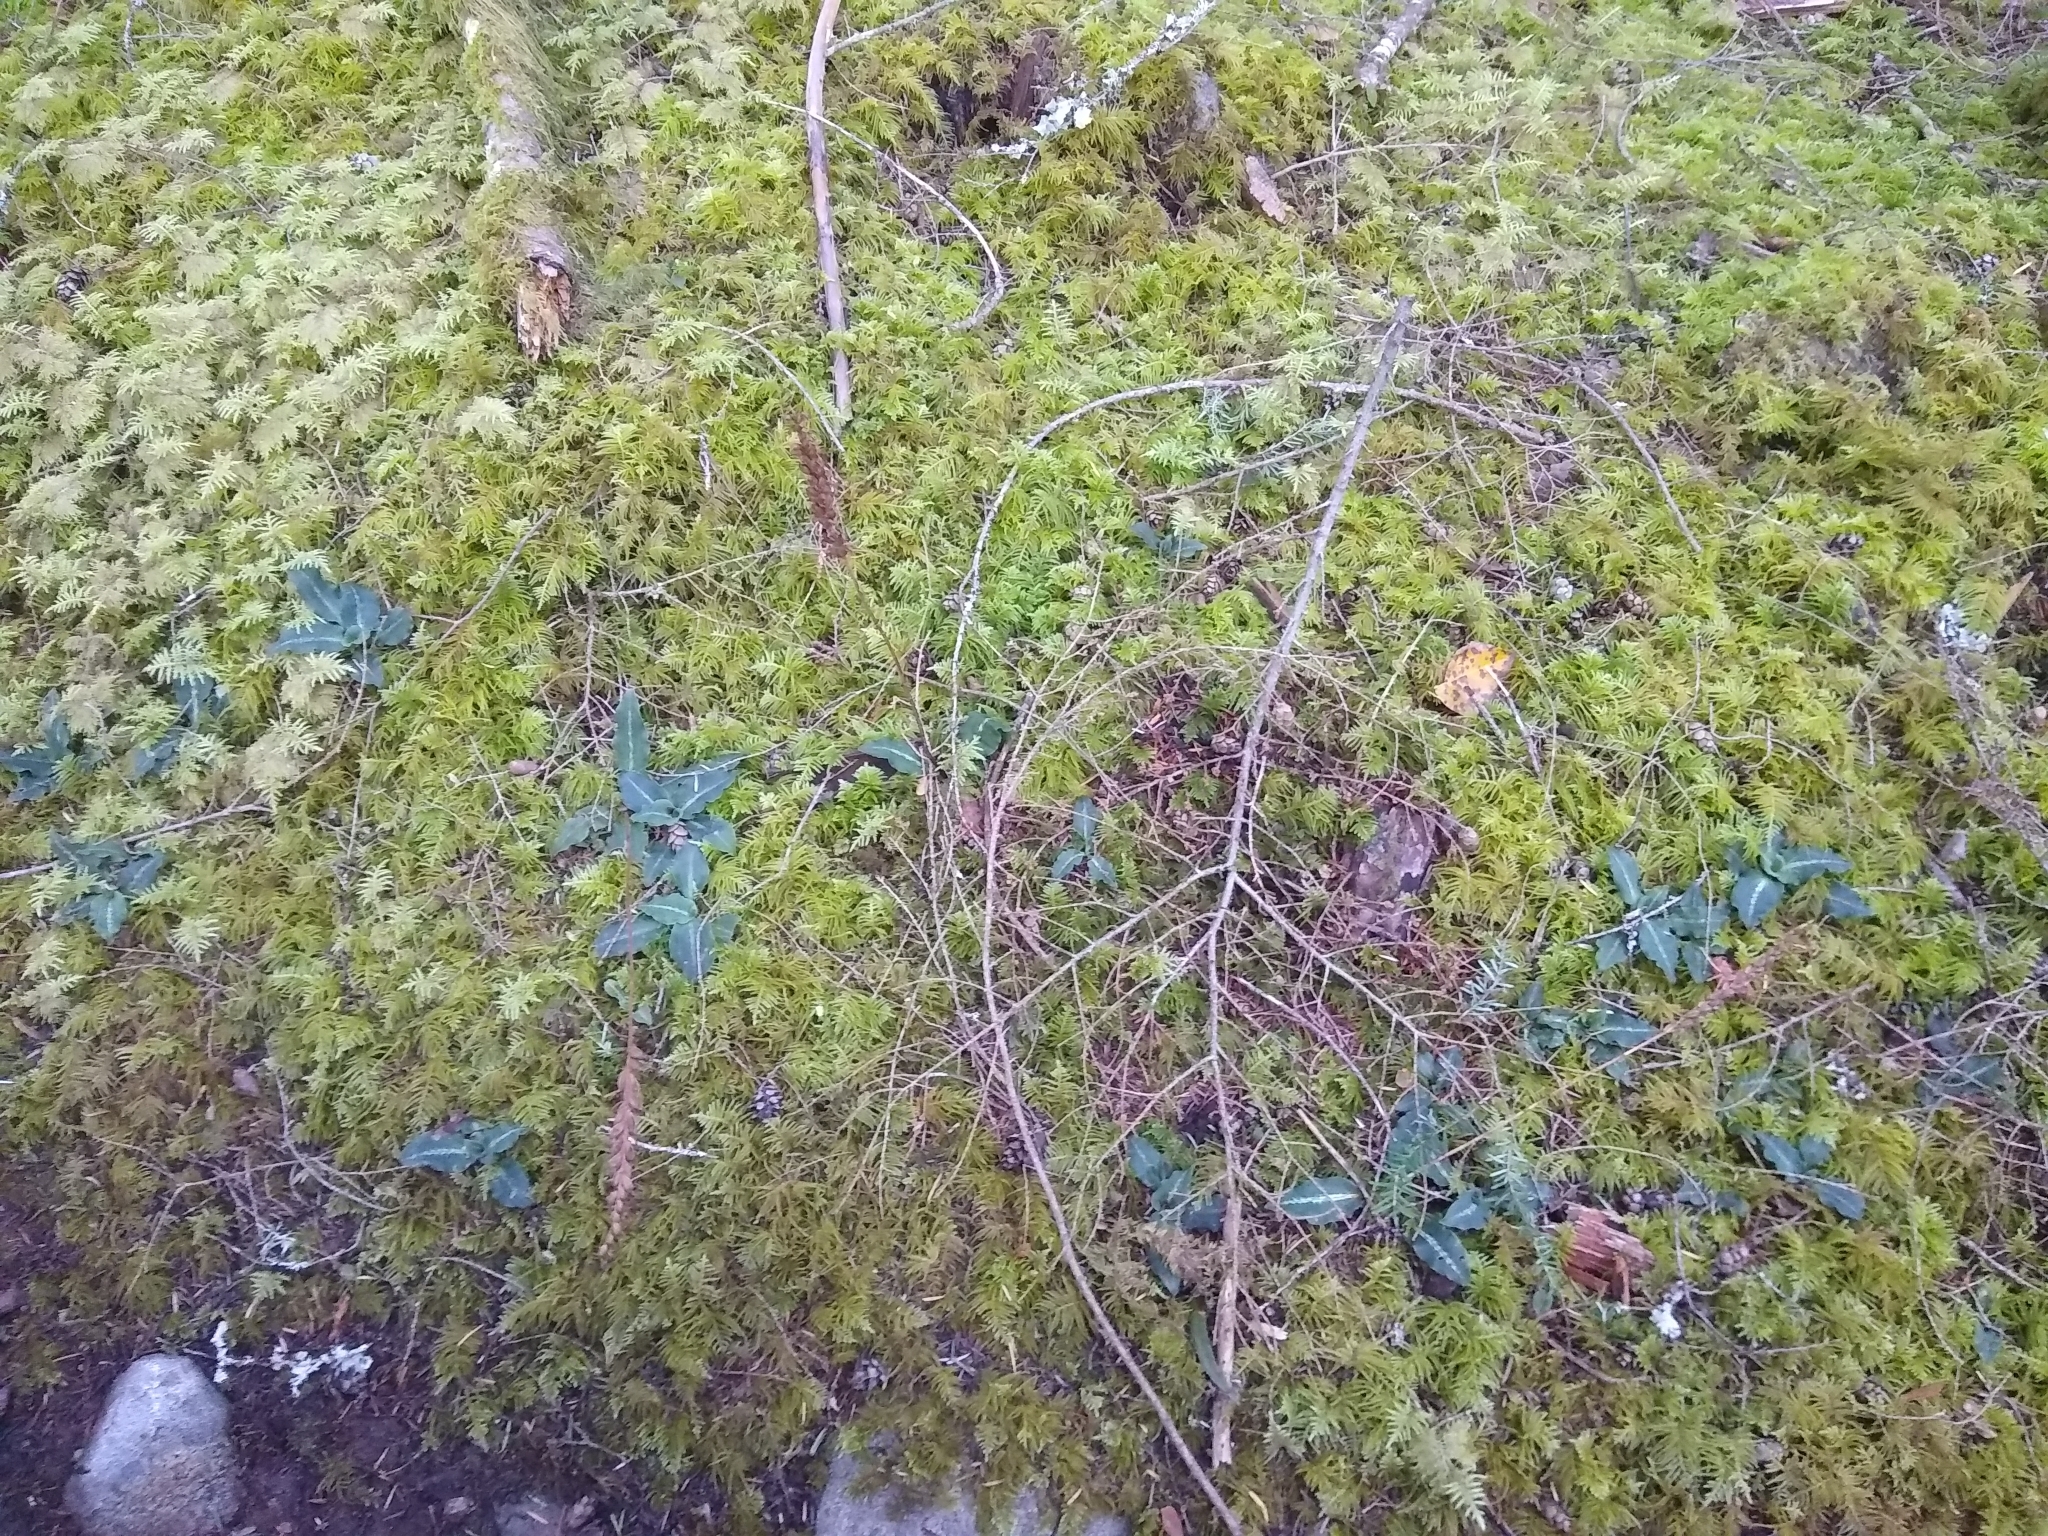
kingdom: Plantae
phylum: Tracheophyta
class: Liliopsida
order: Asparagales
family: Orchidaceae
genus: Goodyera
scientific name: Goodyera oblongifolia
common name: Giant rattlesnake-plantain
